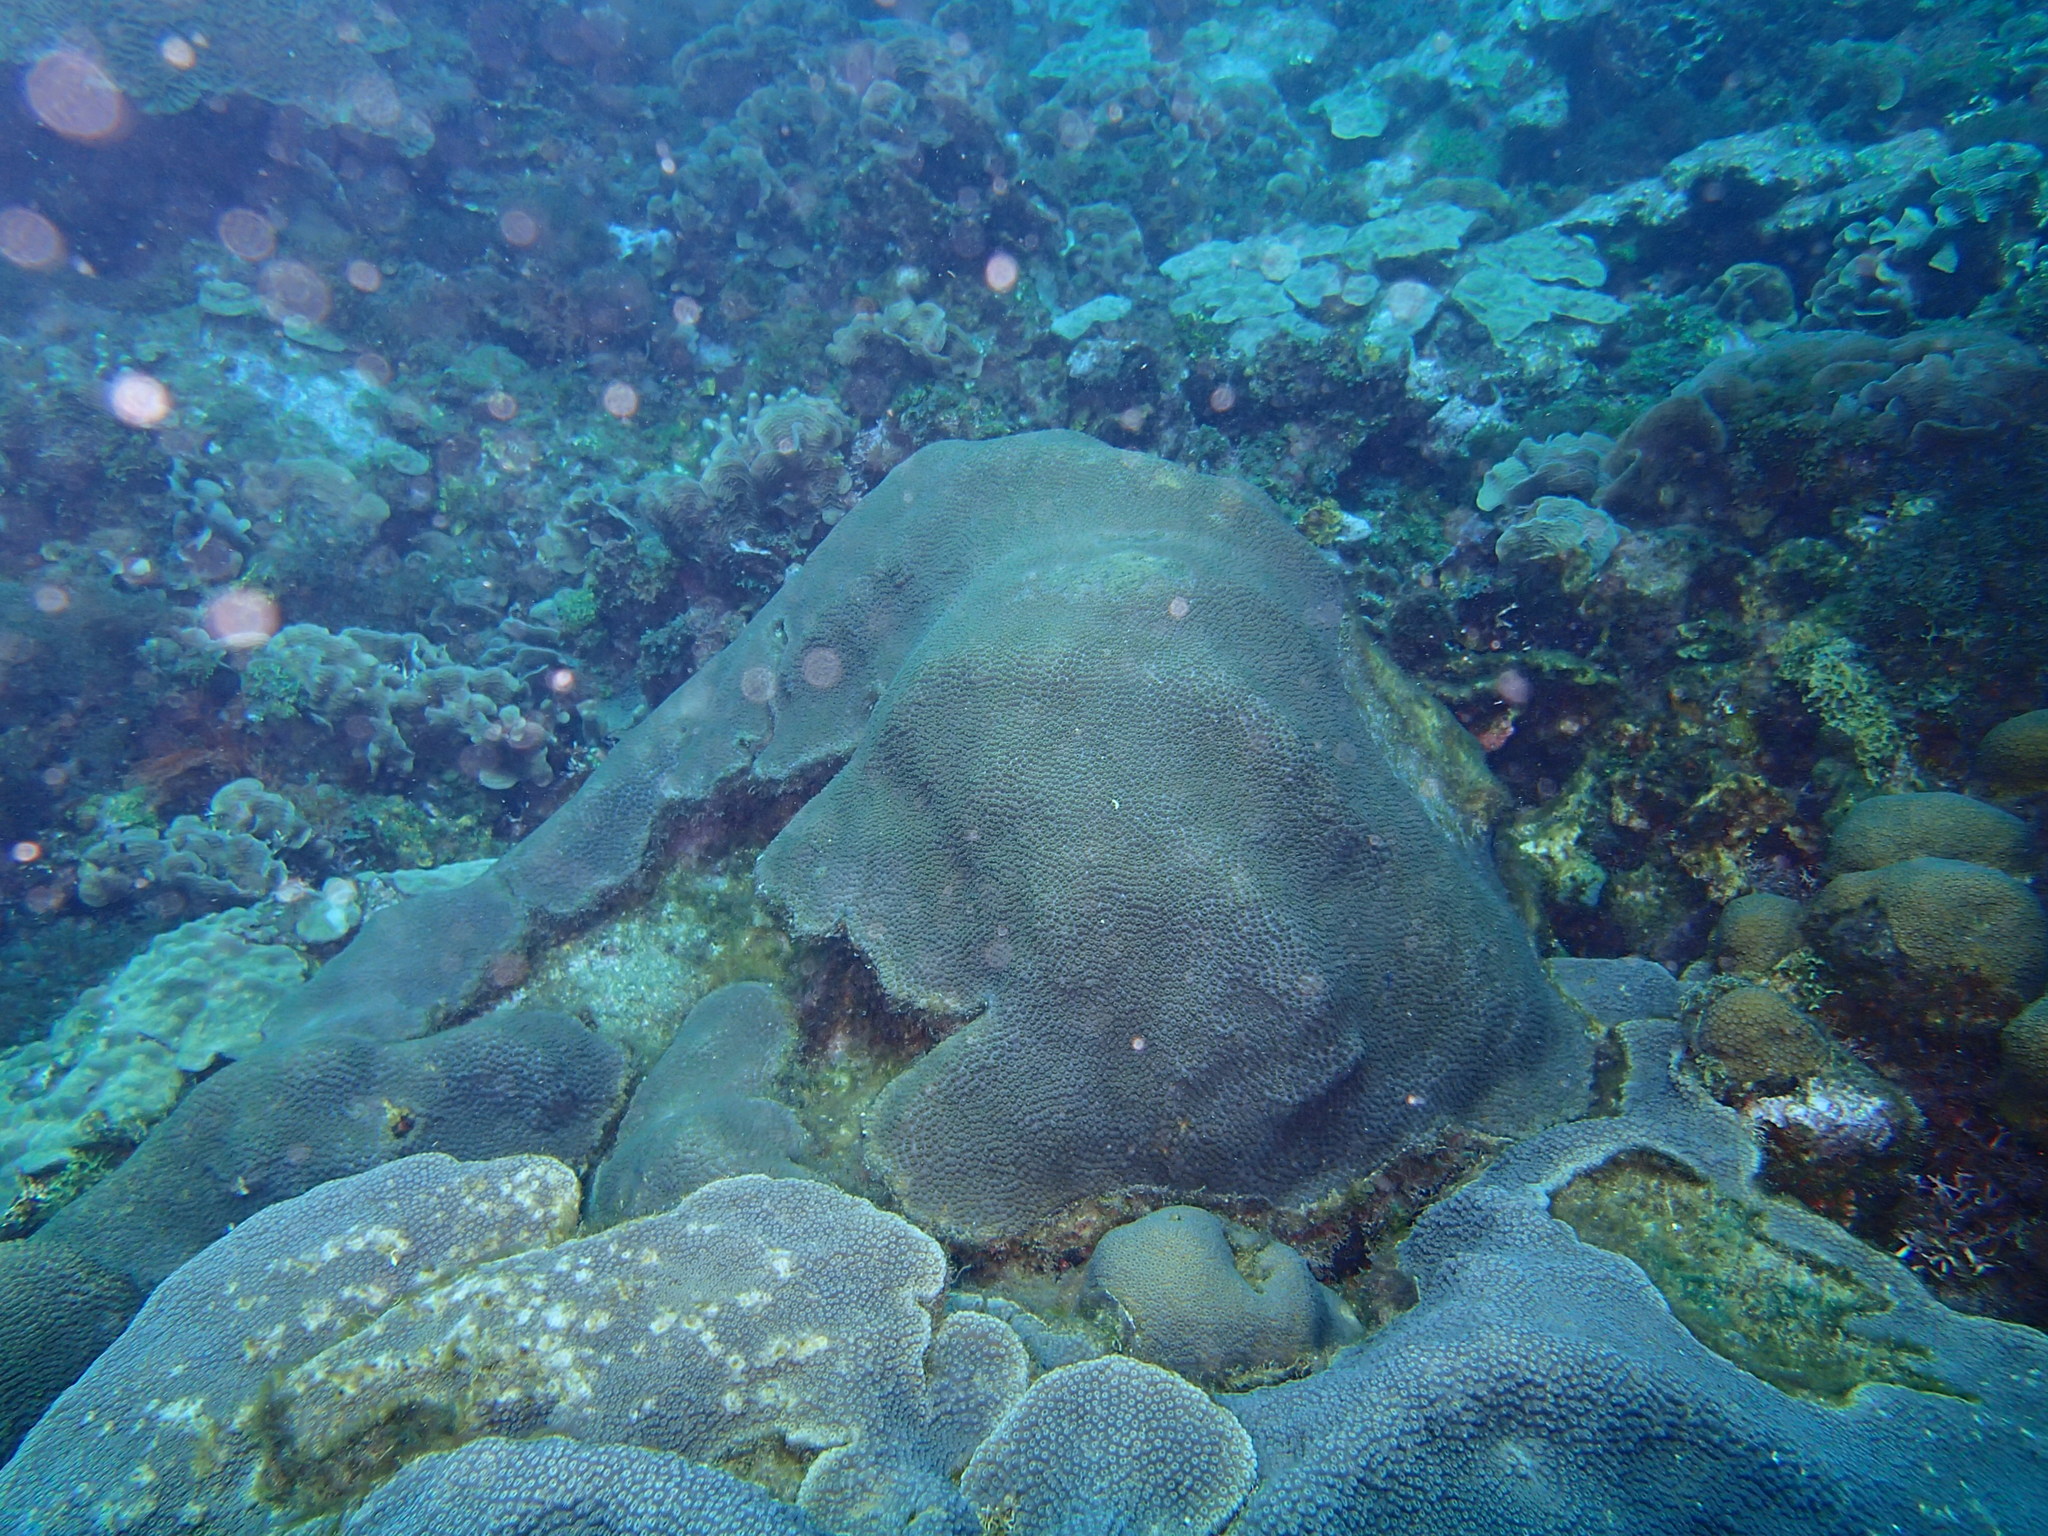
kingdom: Animalia
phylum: Cnidaria
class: Anthozoa
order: Scleractinia
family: Merulinidae
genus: Orbicella
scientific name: Orbicella faveolata
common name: Mountainous star coral
